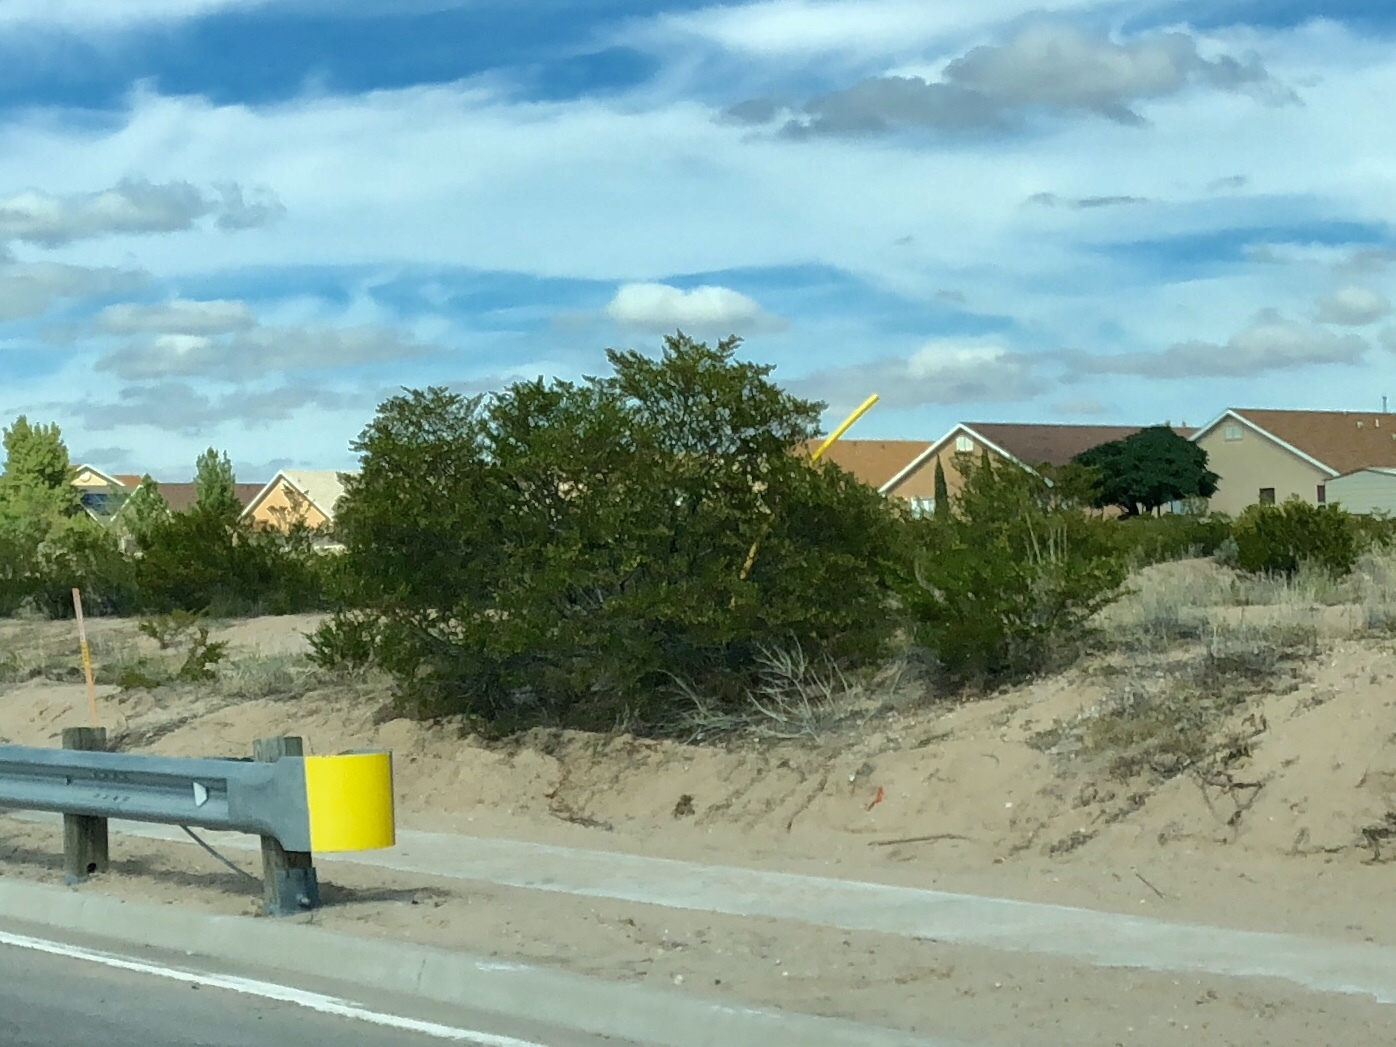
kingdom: Plantae
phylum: Tracheophyta
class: Magnoliopsida
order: Zygophyllales
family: Zygophyllaceae
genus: Larrea
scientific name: Larrea tridentata
